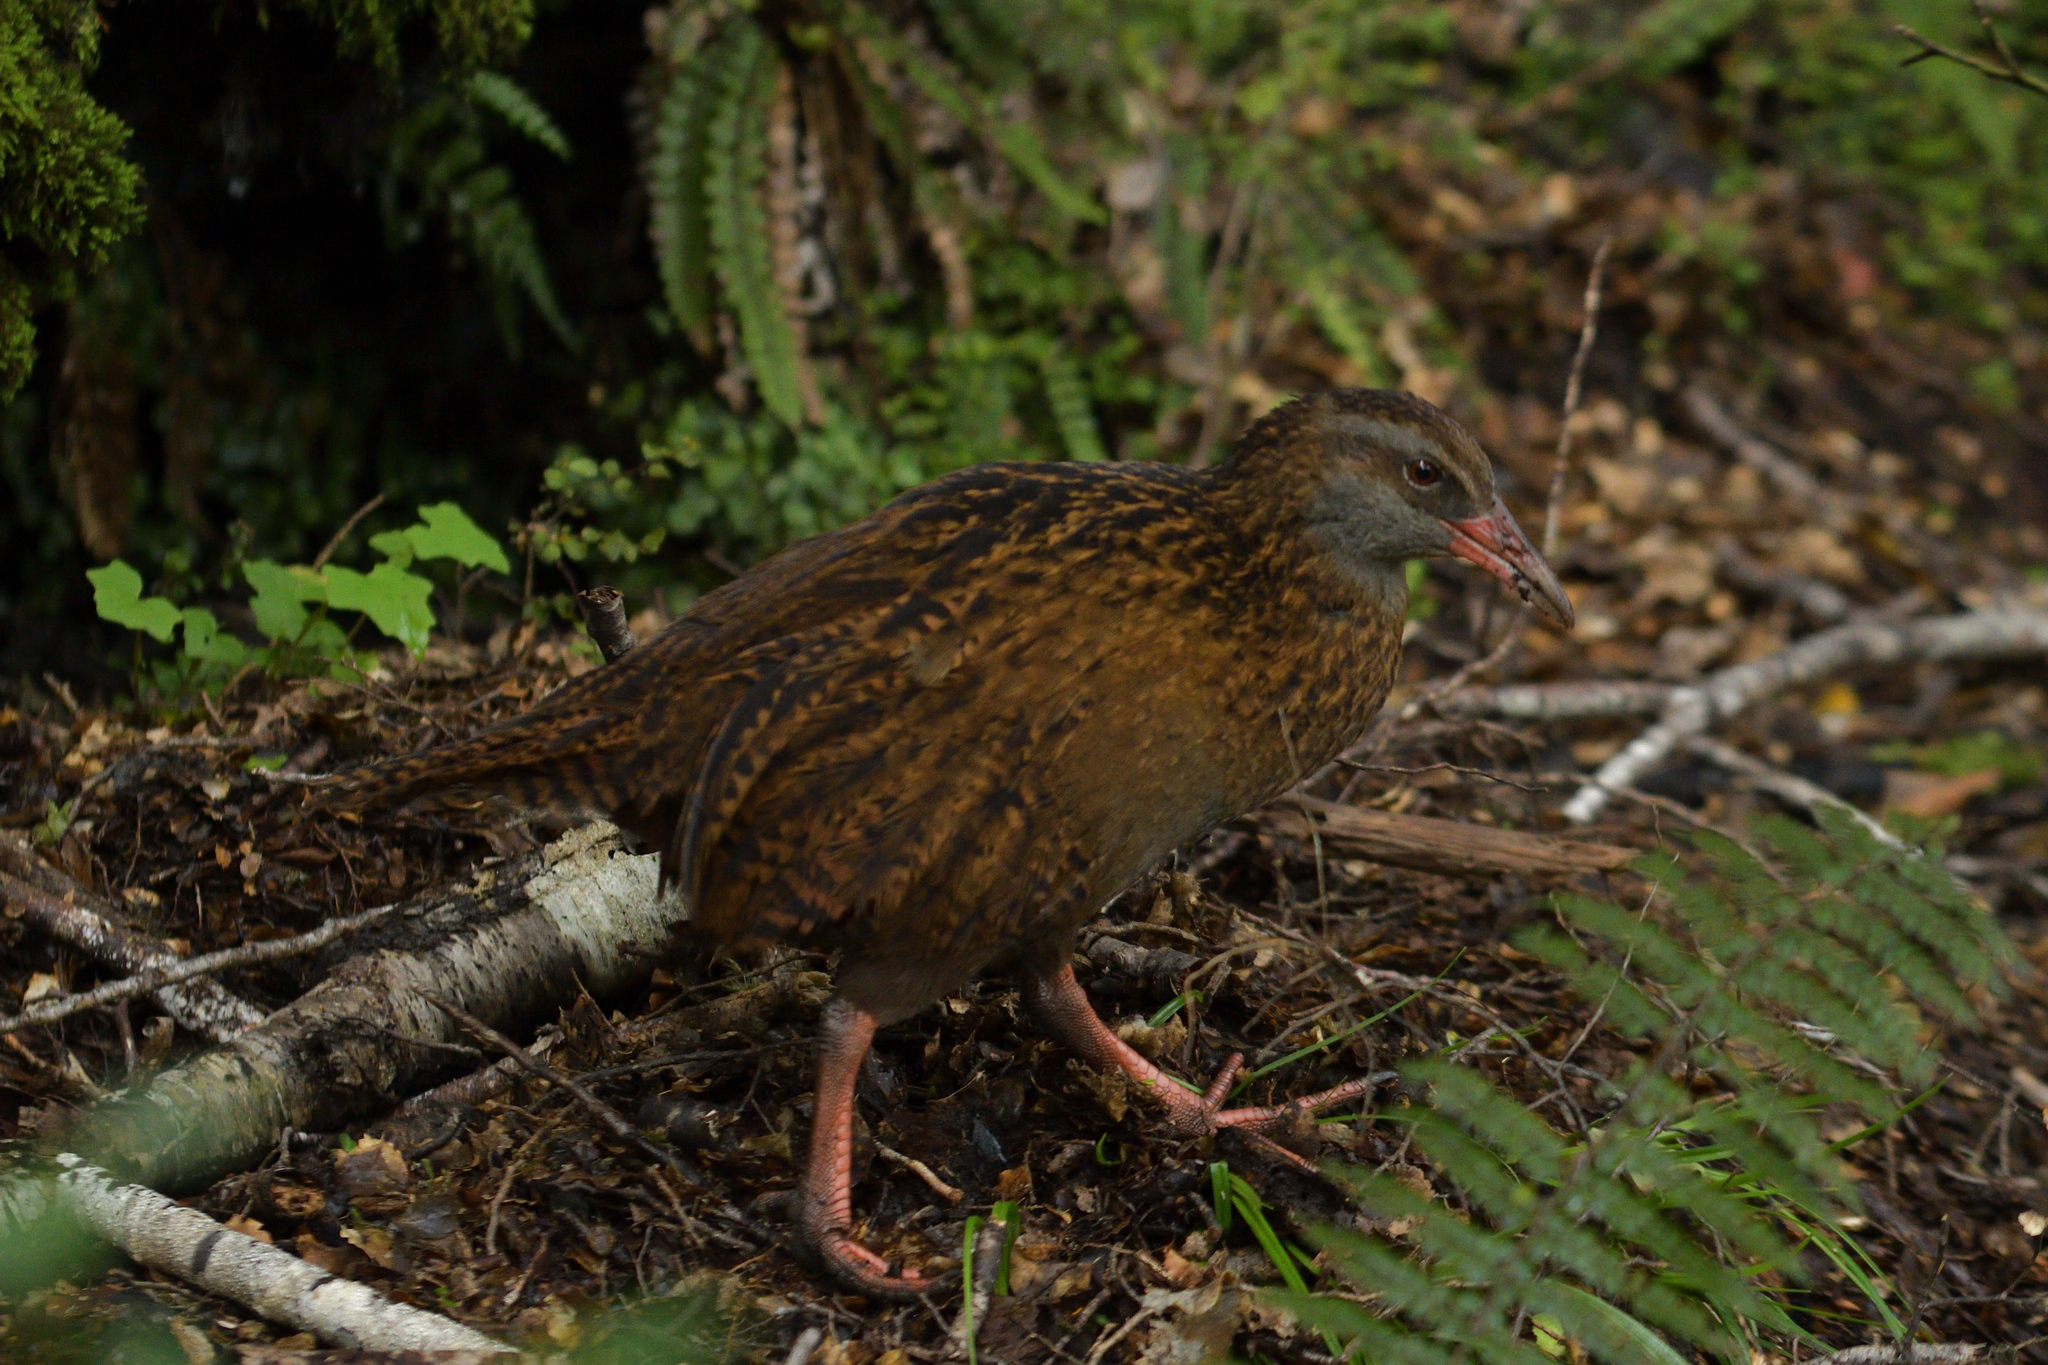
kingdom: Animalia
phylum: Chordata
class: Aves
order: Gruiformes
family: Rallidae
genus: Gallirallus
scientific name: Gallirallus australis
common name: Weka
